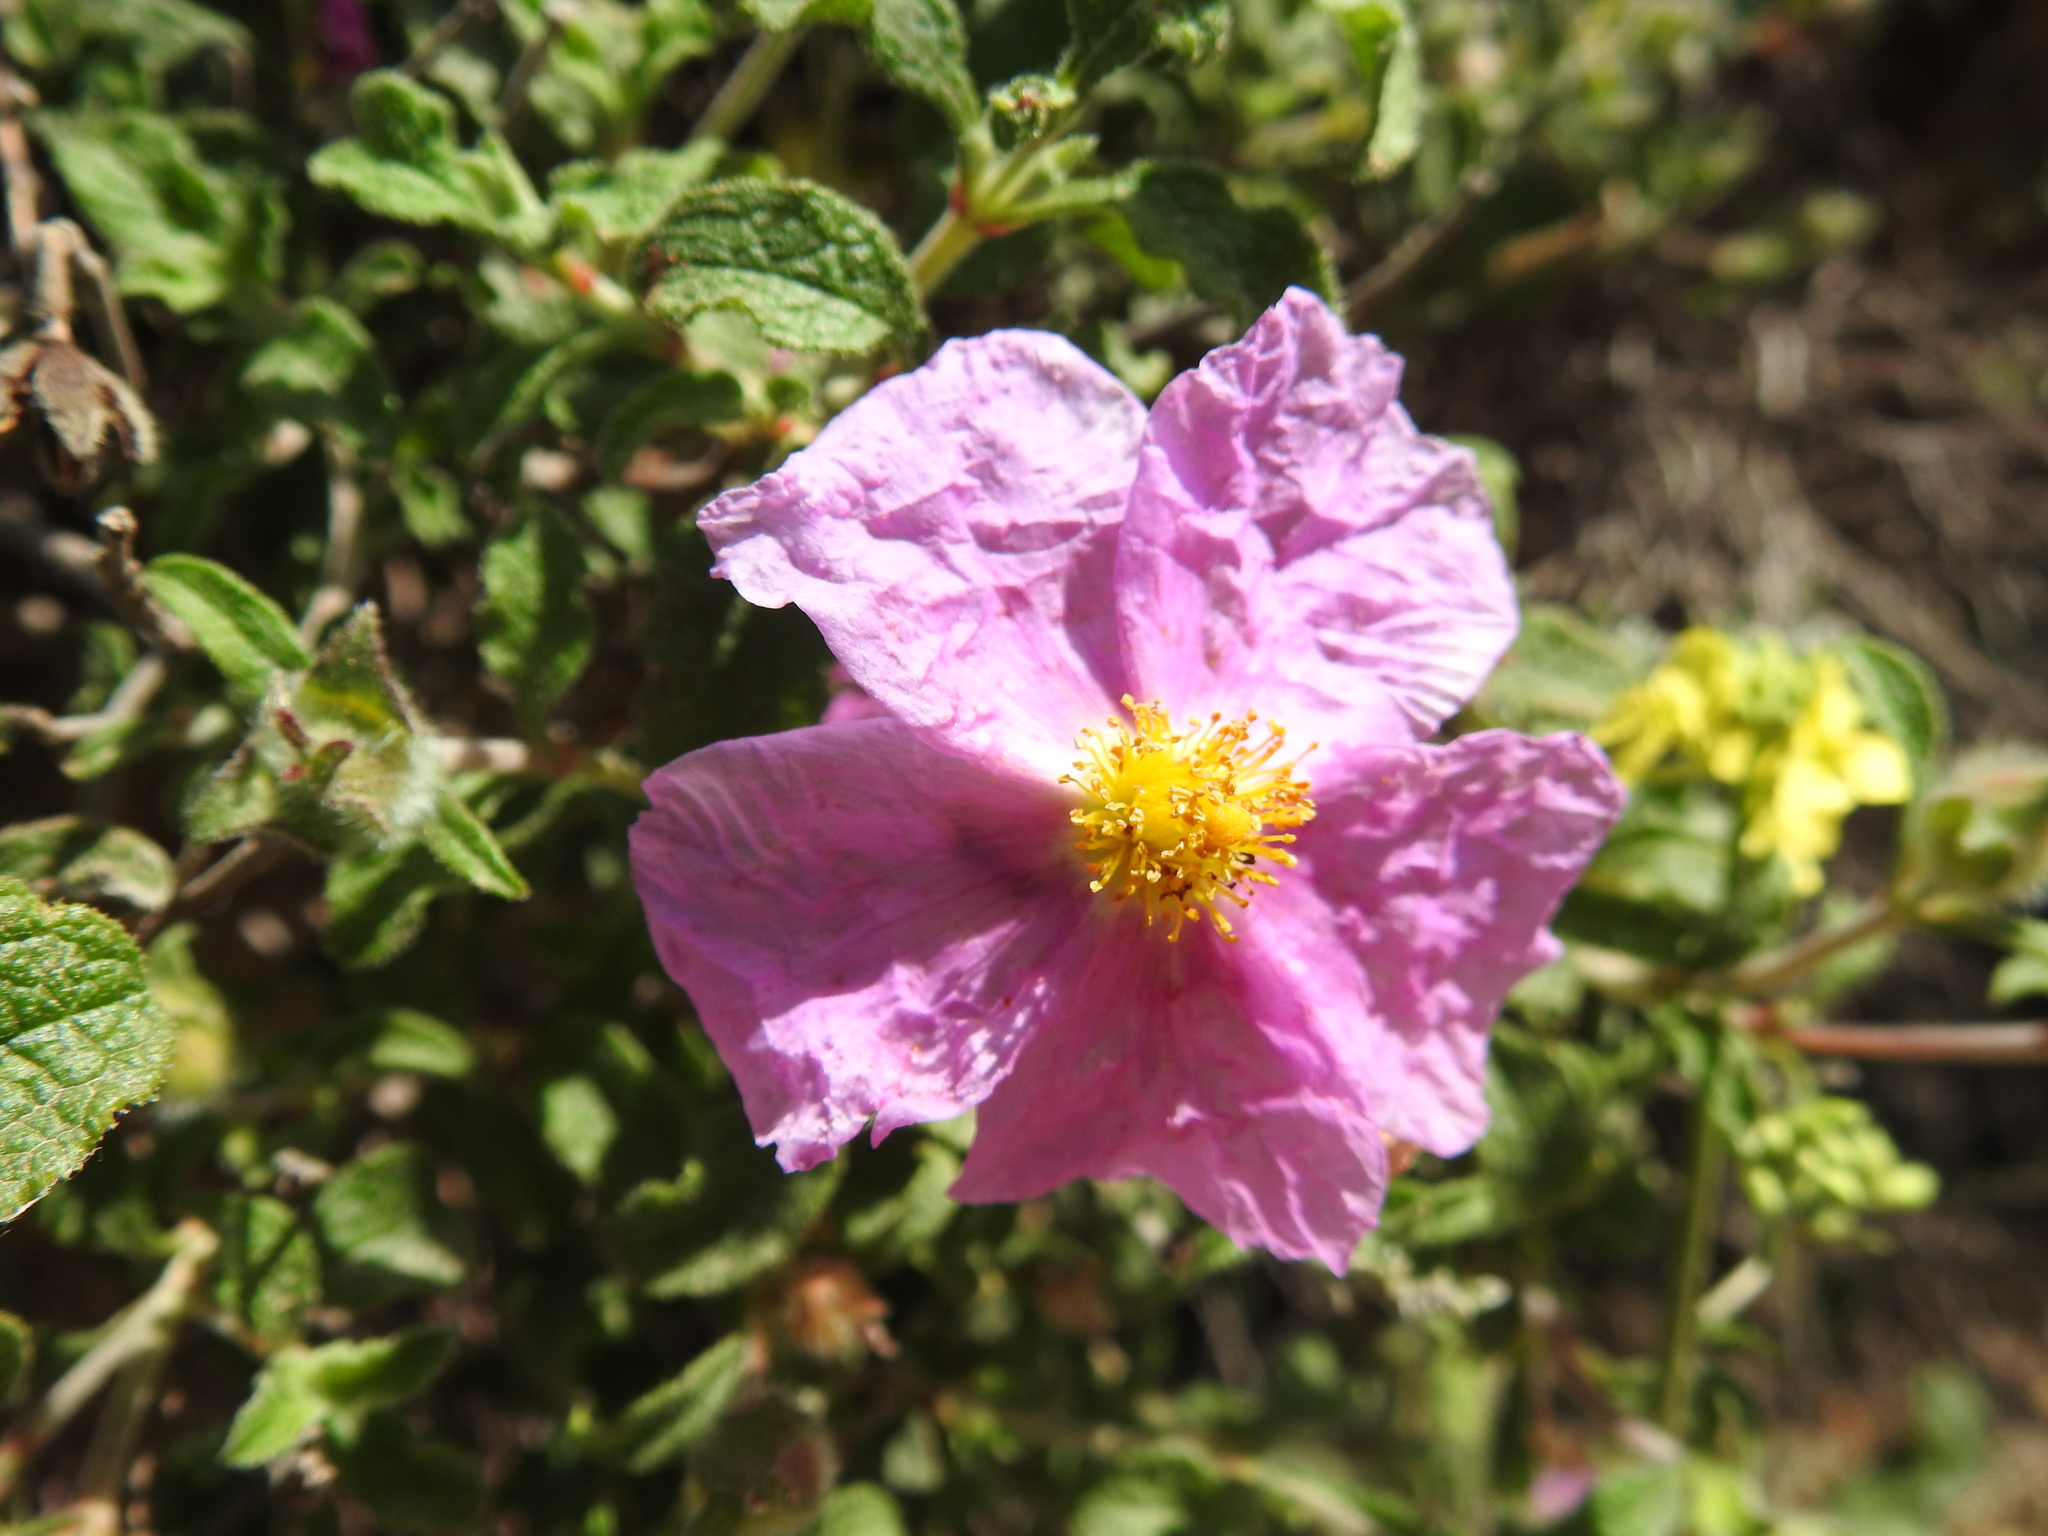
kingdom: Plantae
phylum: Tracheophyta
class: Magnoliopsida
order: Malvales
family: Cistaceae
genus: Cistus
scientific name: Cistus creticus
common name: Cretan rockrose
